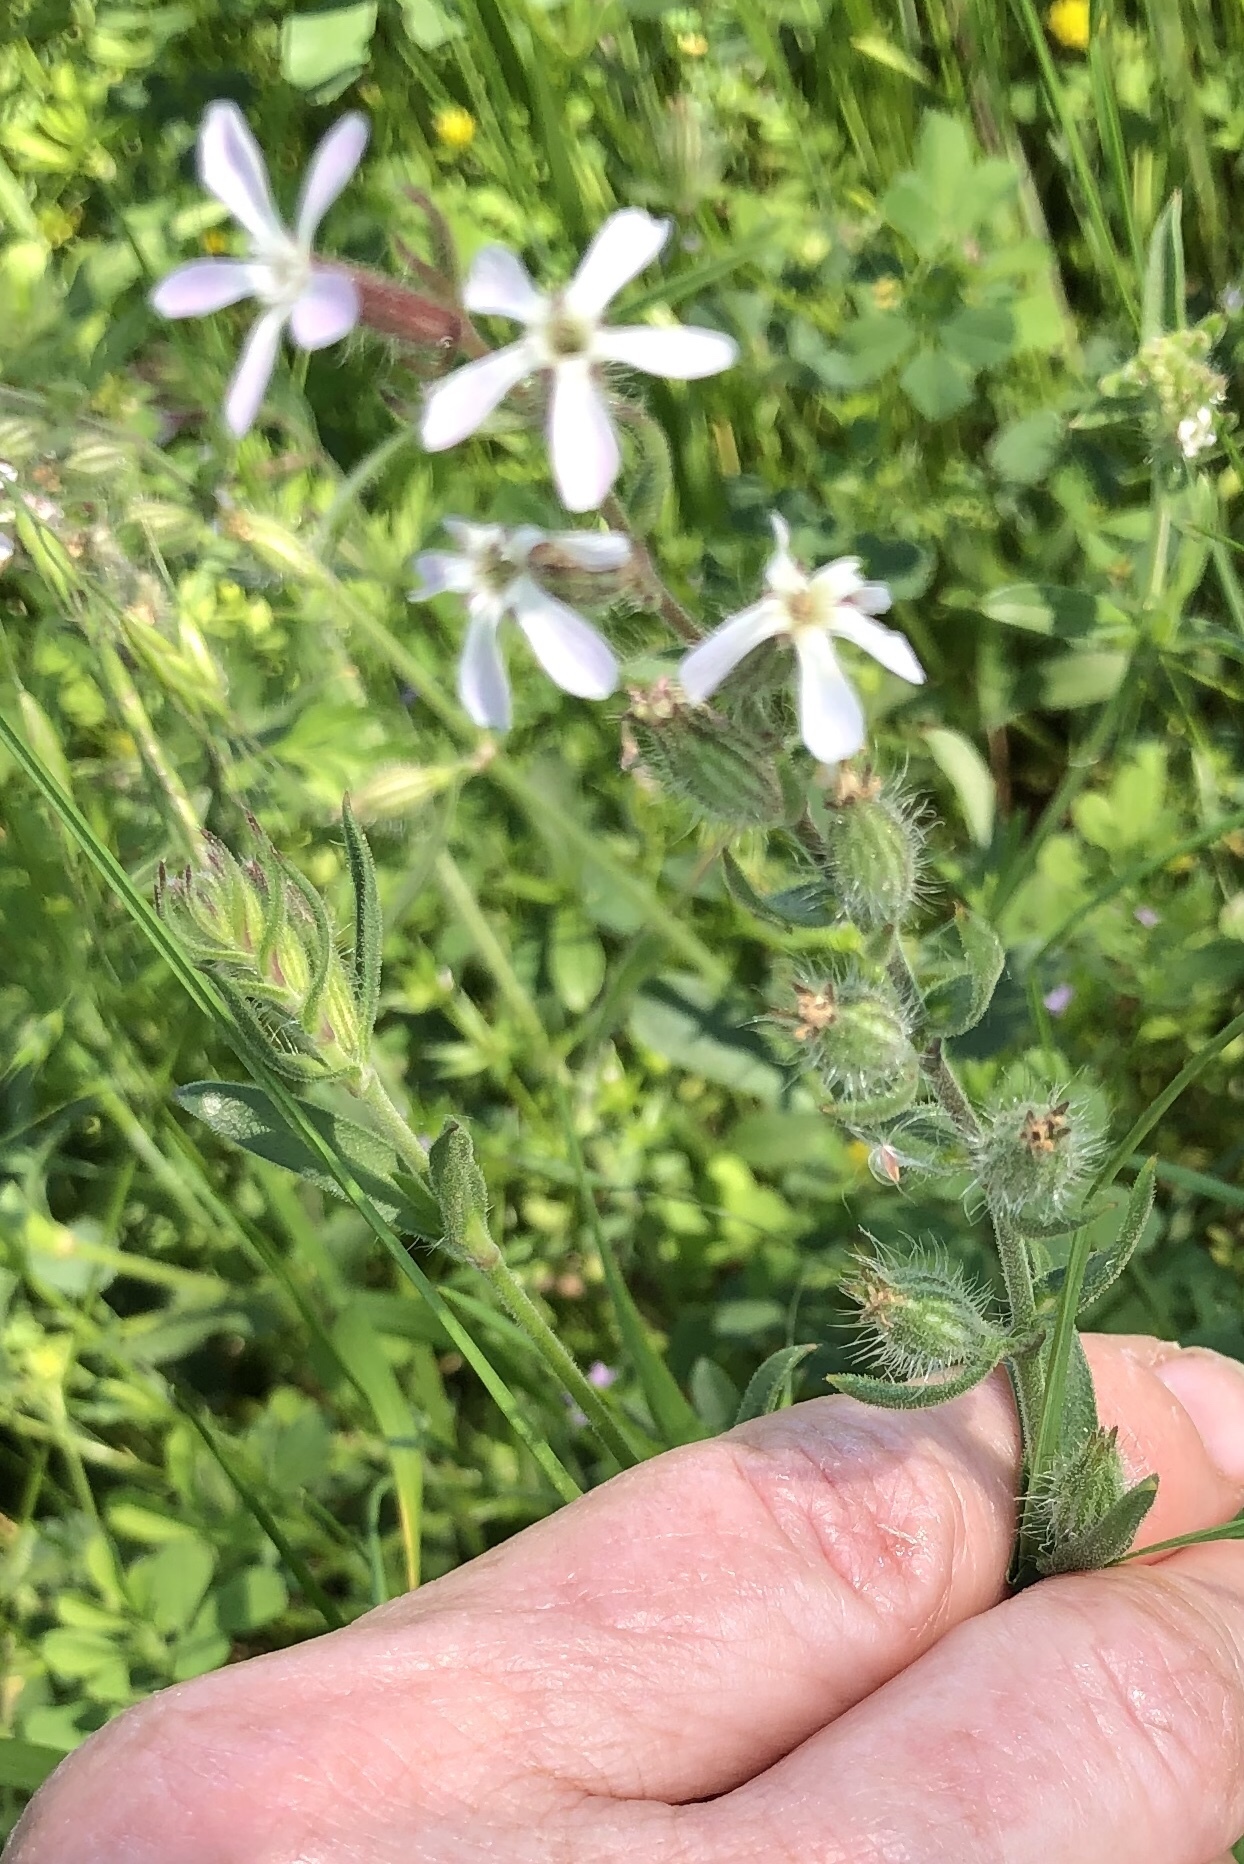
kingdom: Plantae
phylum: Tracheophyta
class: Magnoliopsida
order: Caryophyllales
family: Caryophyllaceae
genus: Silene
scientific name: Silene gallica
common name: Small-flowered catchfly
